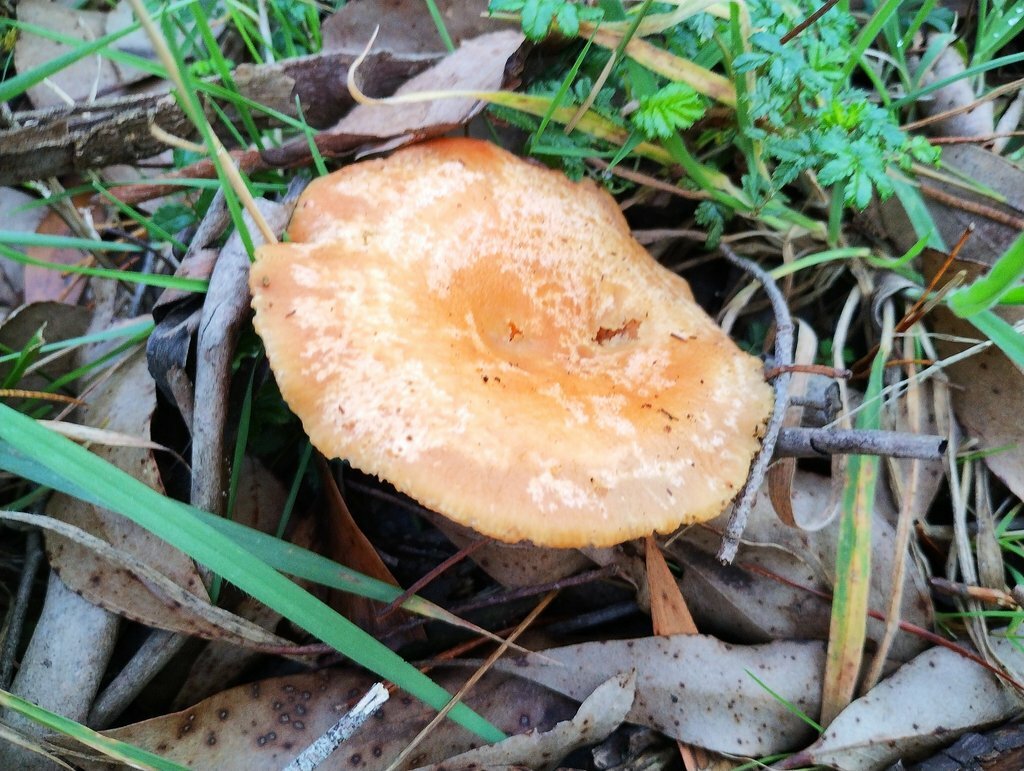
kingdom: Fungi
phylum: Basidiomycota
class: Agaricomycetes
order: Russulales
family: Russulaceae
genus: Lactarius
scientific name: Lactarius deliciosus
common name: Saffron milk-cap
